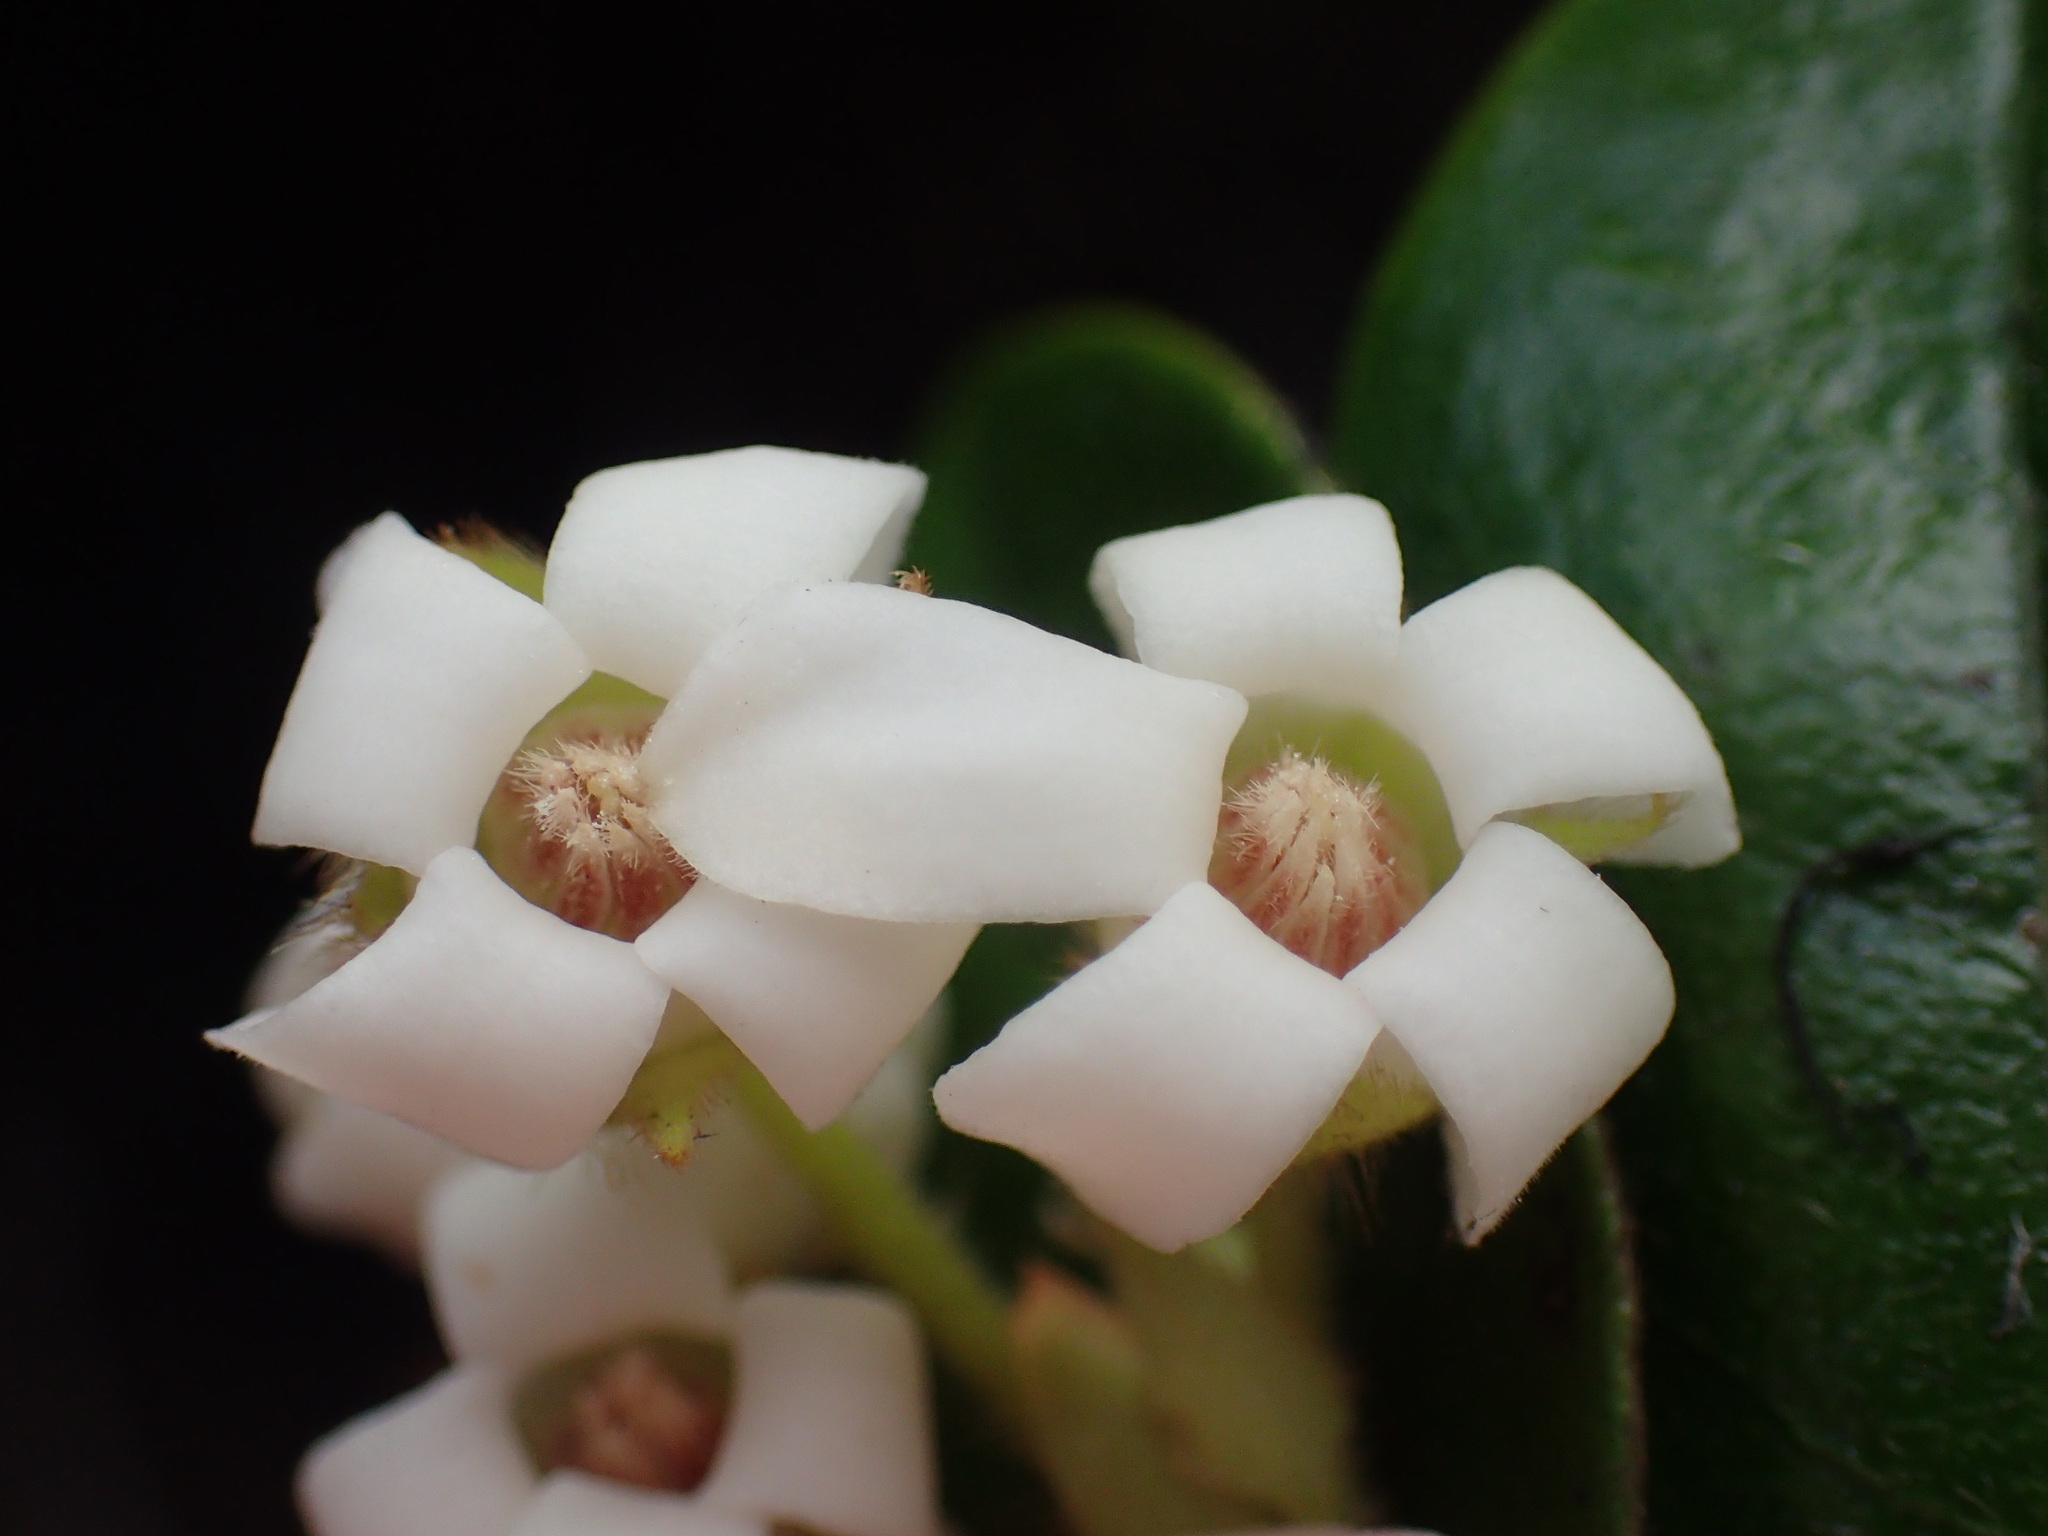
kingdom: Plantae
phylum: Tracheophyta
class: Magnoliopsida
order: Ericales
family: Ebenaceae
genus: Diospyros
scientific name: Diospyros scabrida
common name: Coastal bladder-nut
